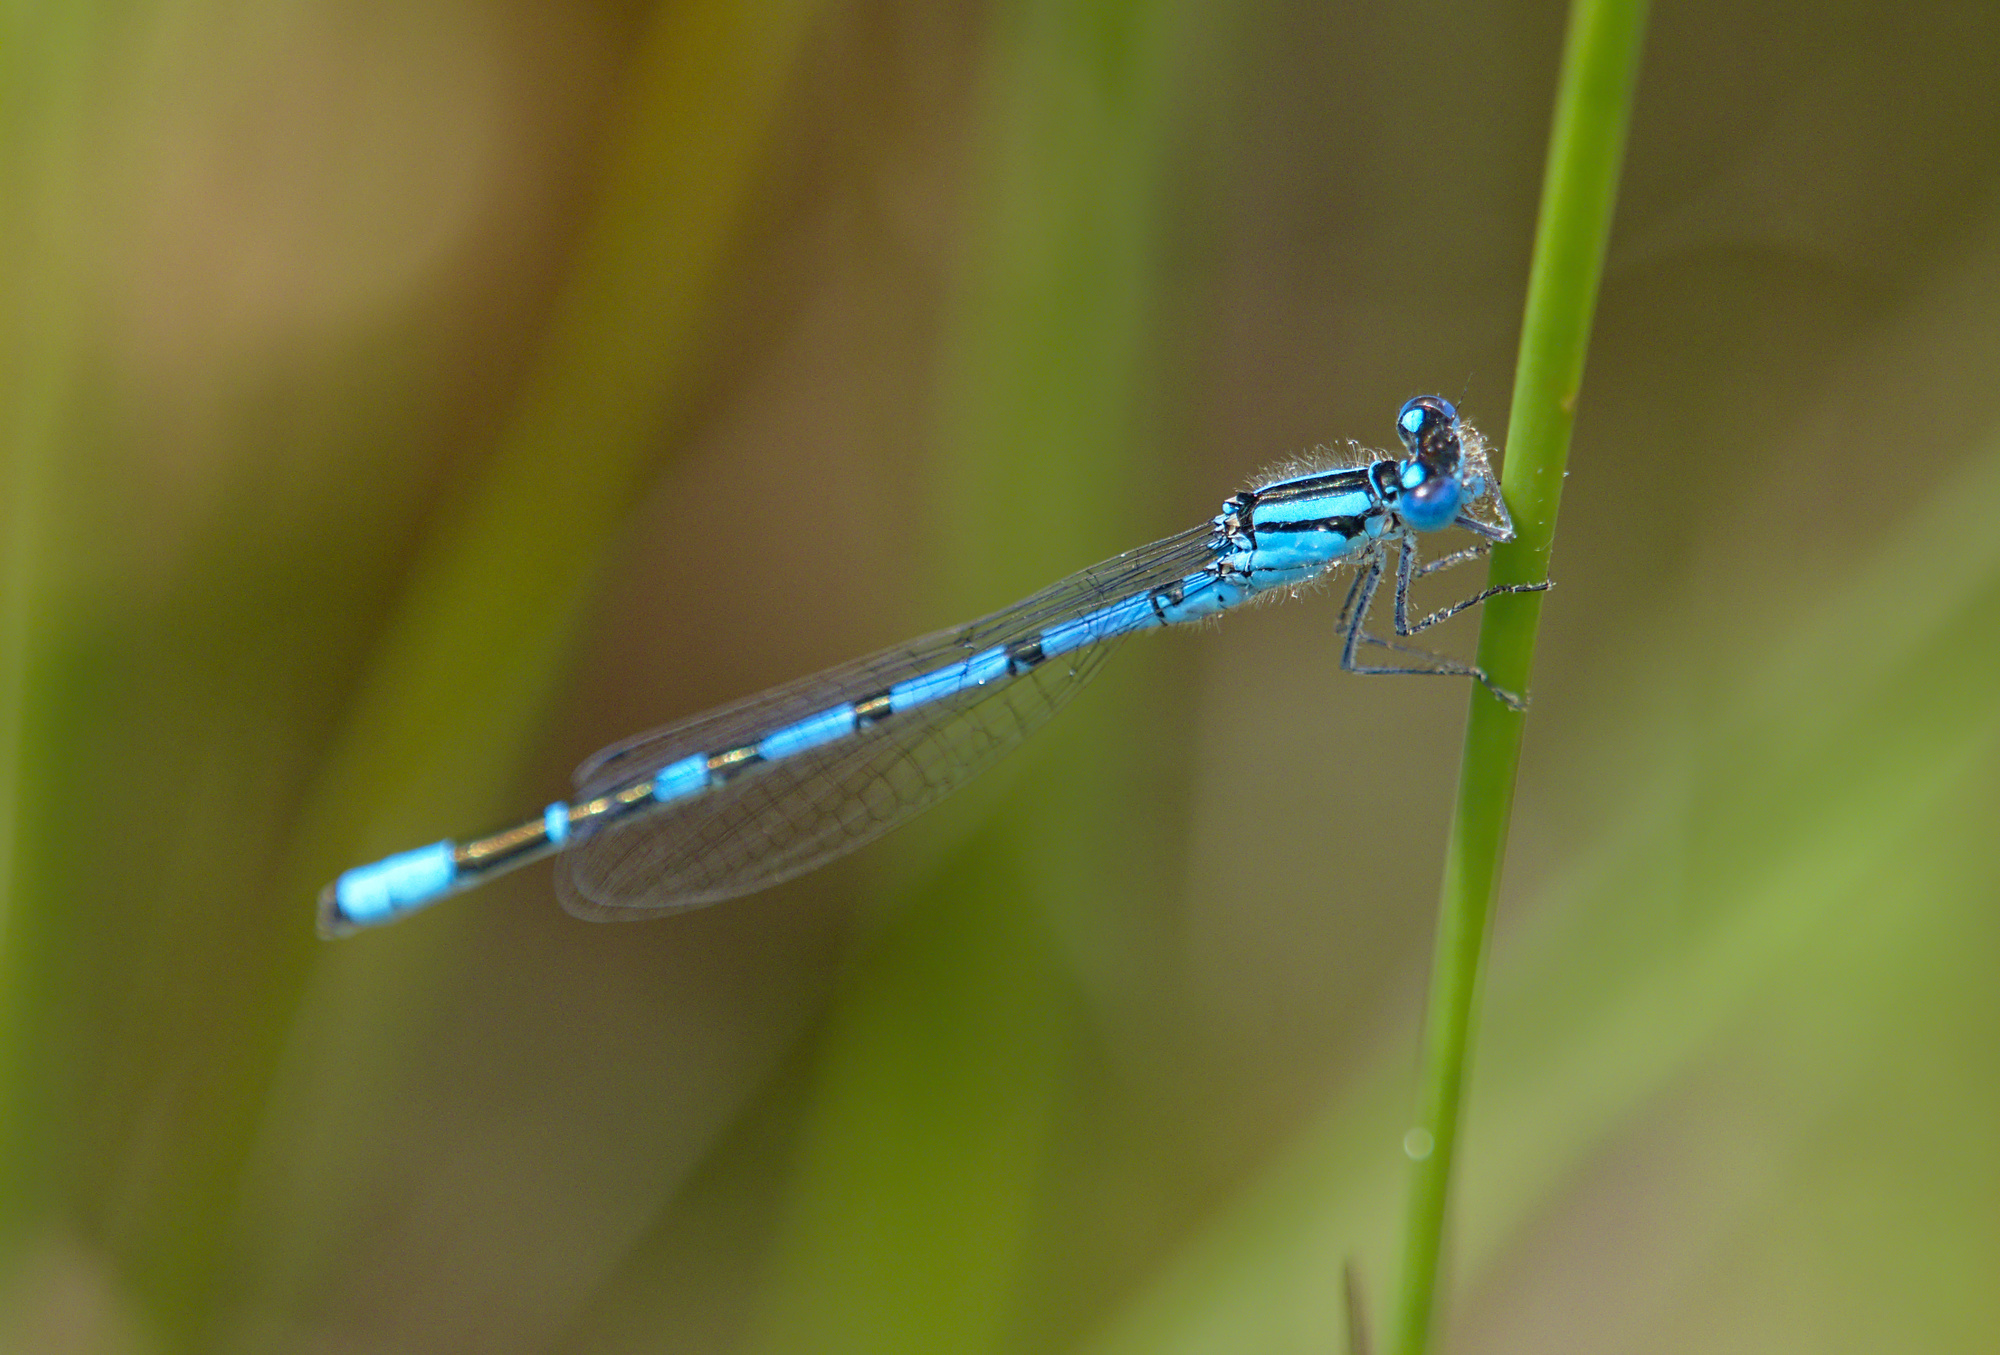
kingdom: Animalia
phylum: Arthropoda
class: Insecta
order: Odonata
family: Coenagrionidae
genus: Enallagma
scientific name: Enallagma cyathigerum
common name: Common blue damselfly
